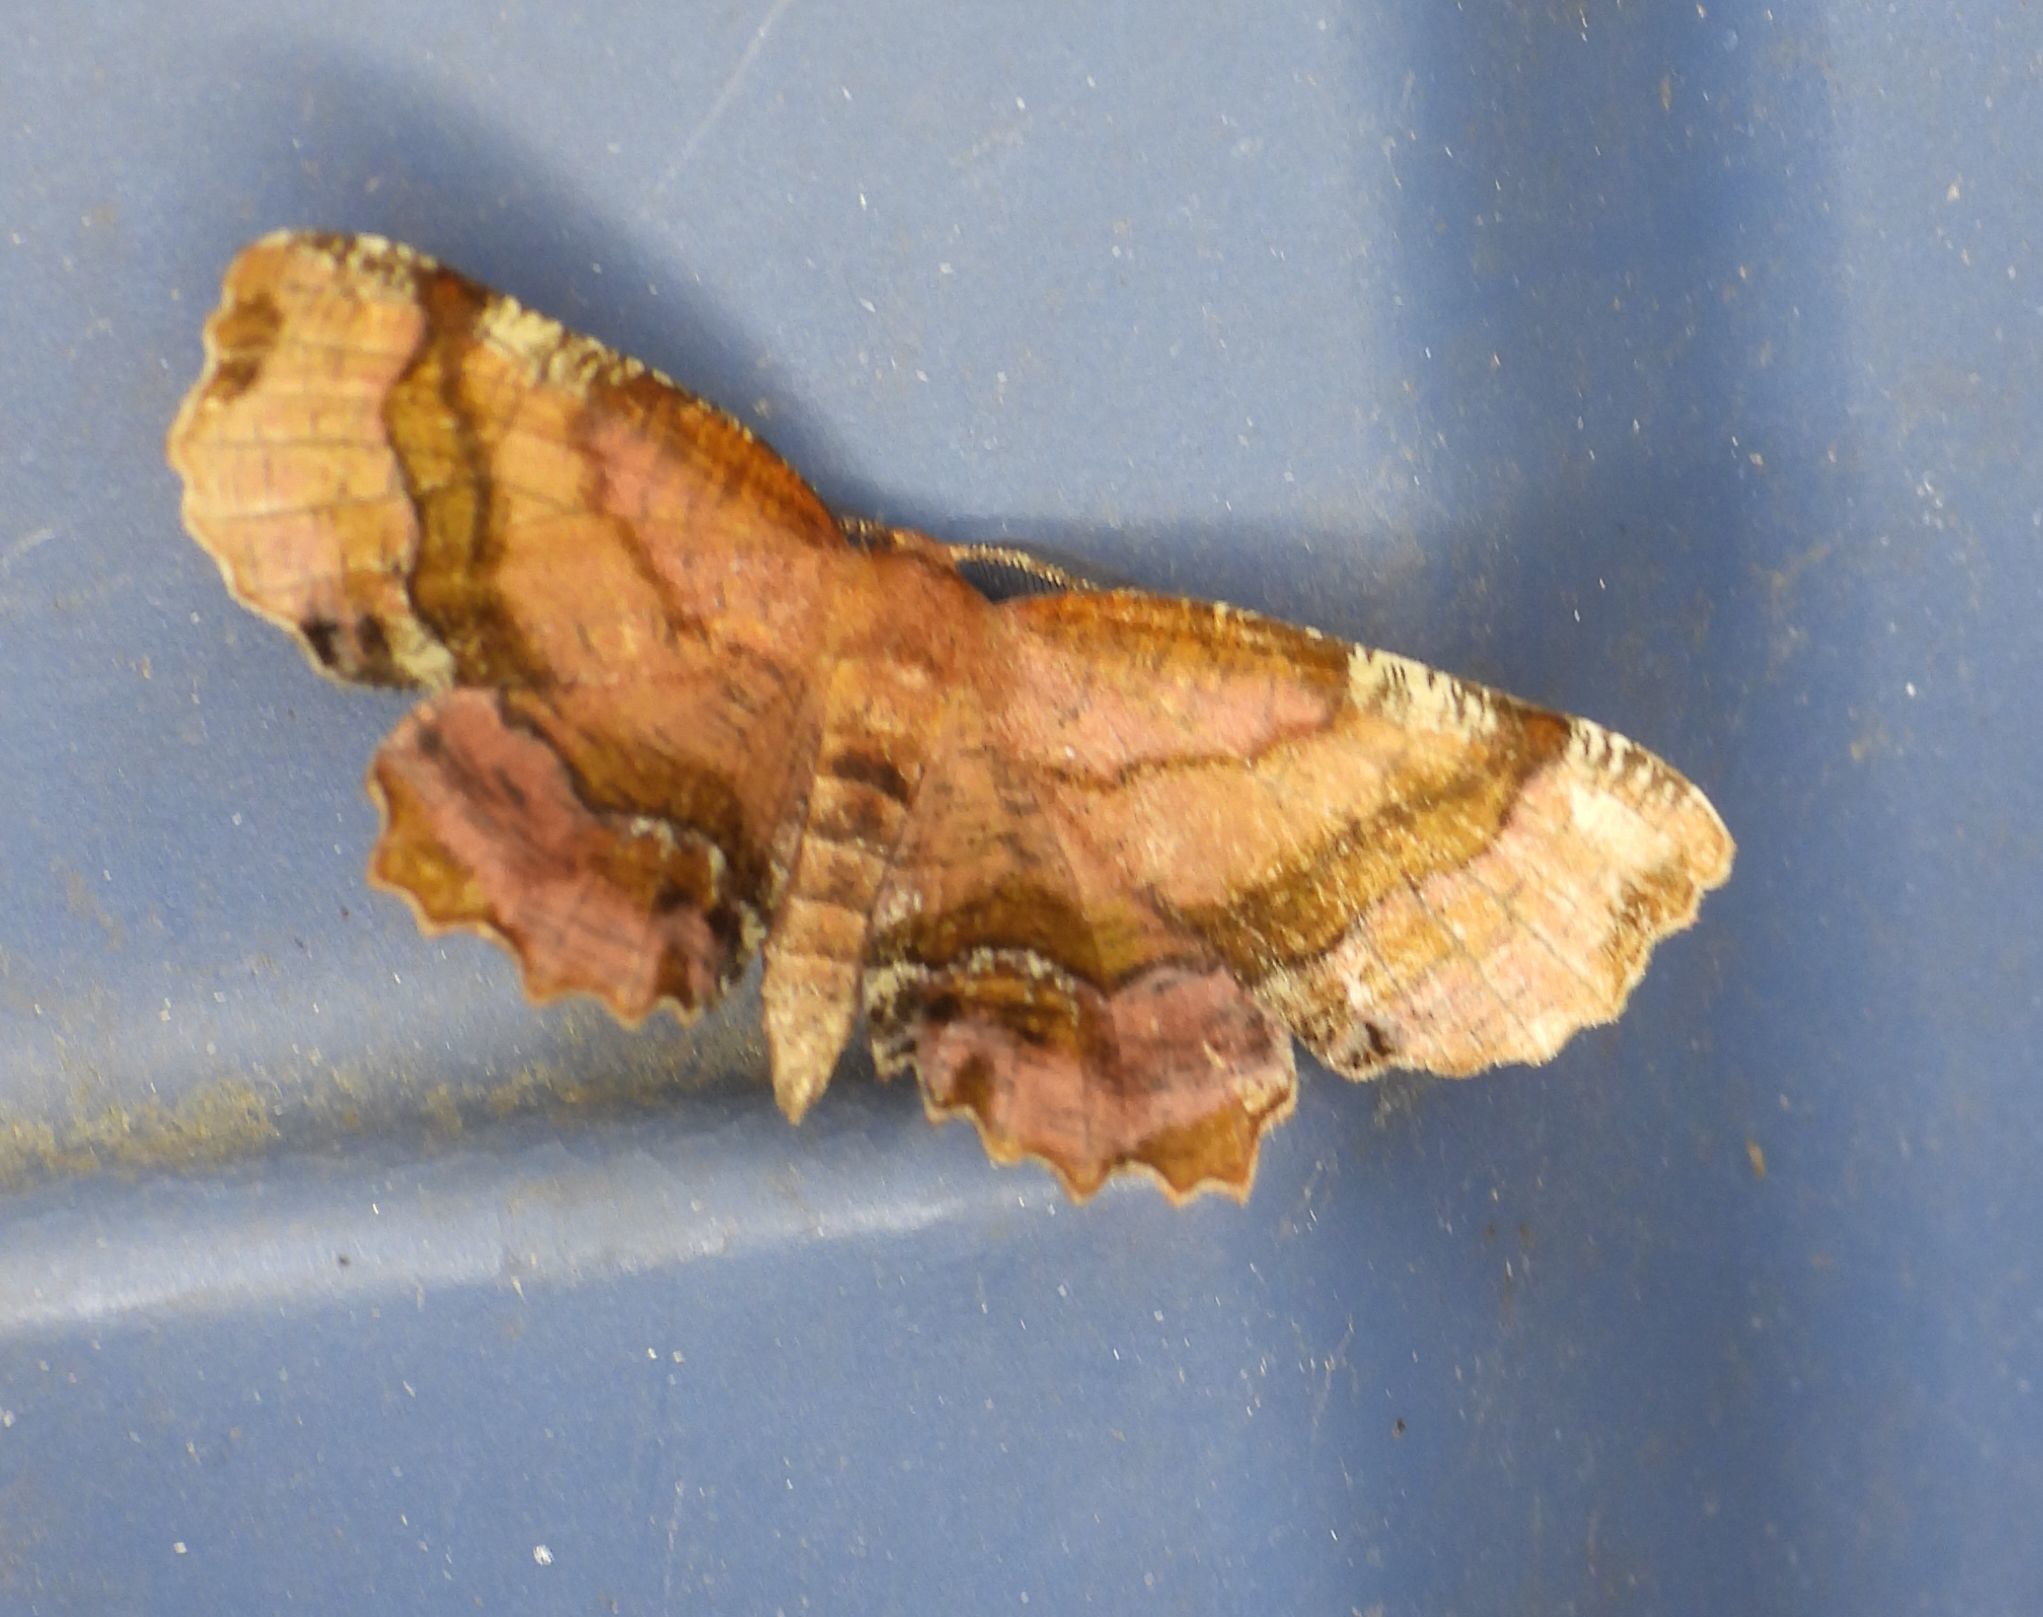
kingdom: Animalia
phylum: Arthropoda
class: Insecta
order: Lepidoptera
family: Geometridae
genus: Cepphis
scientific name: Cepphis armataria
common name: Scallop moth
